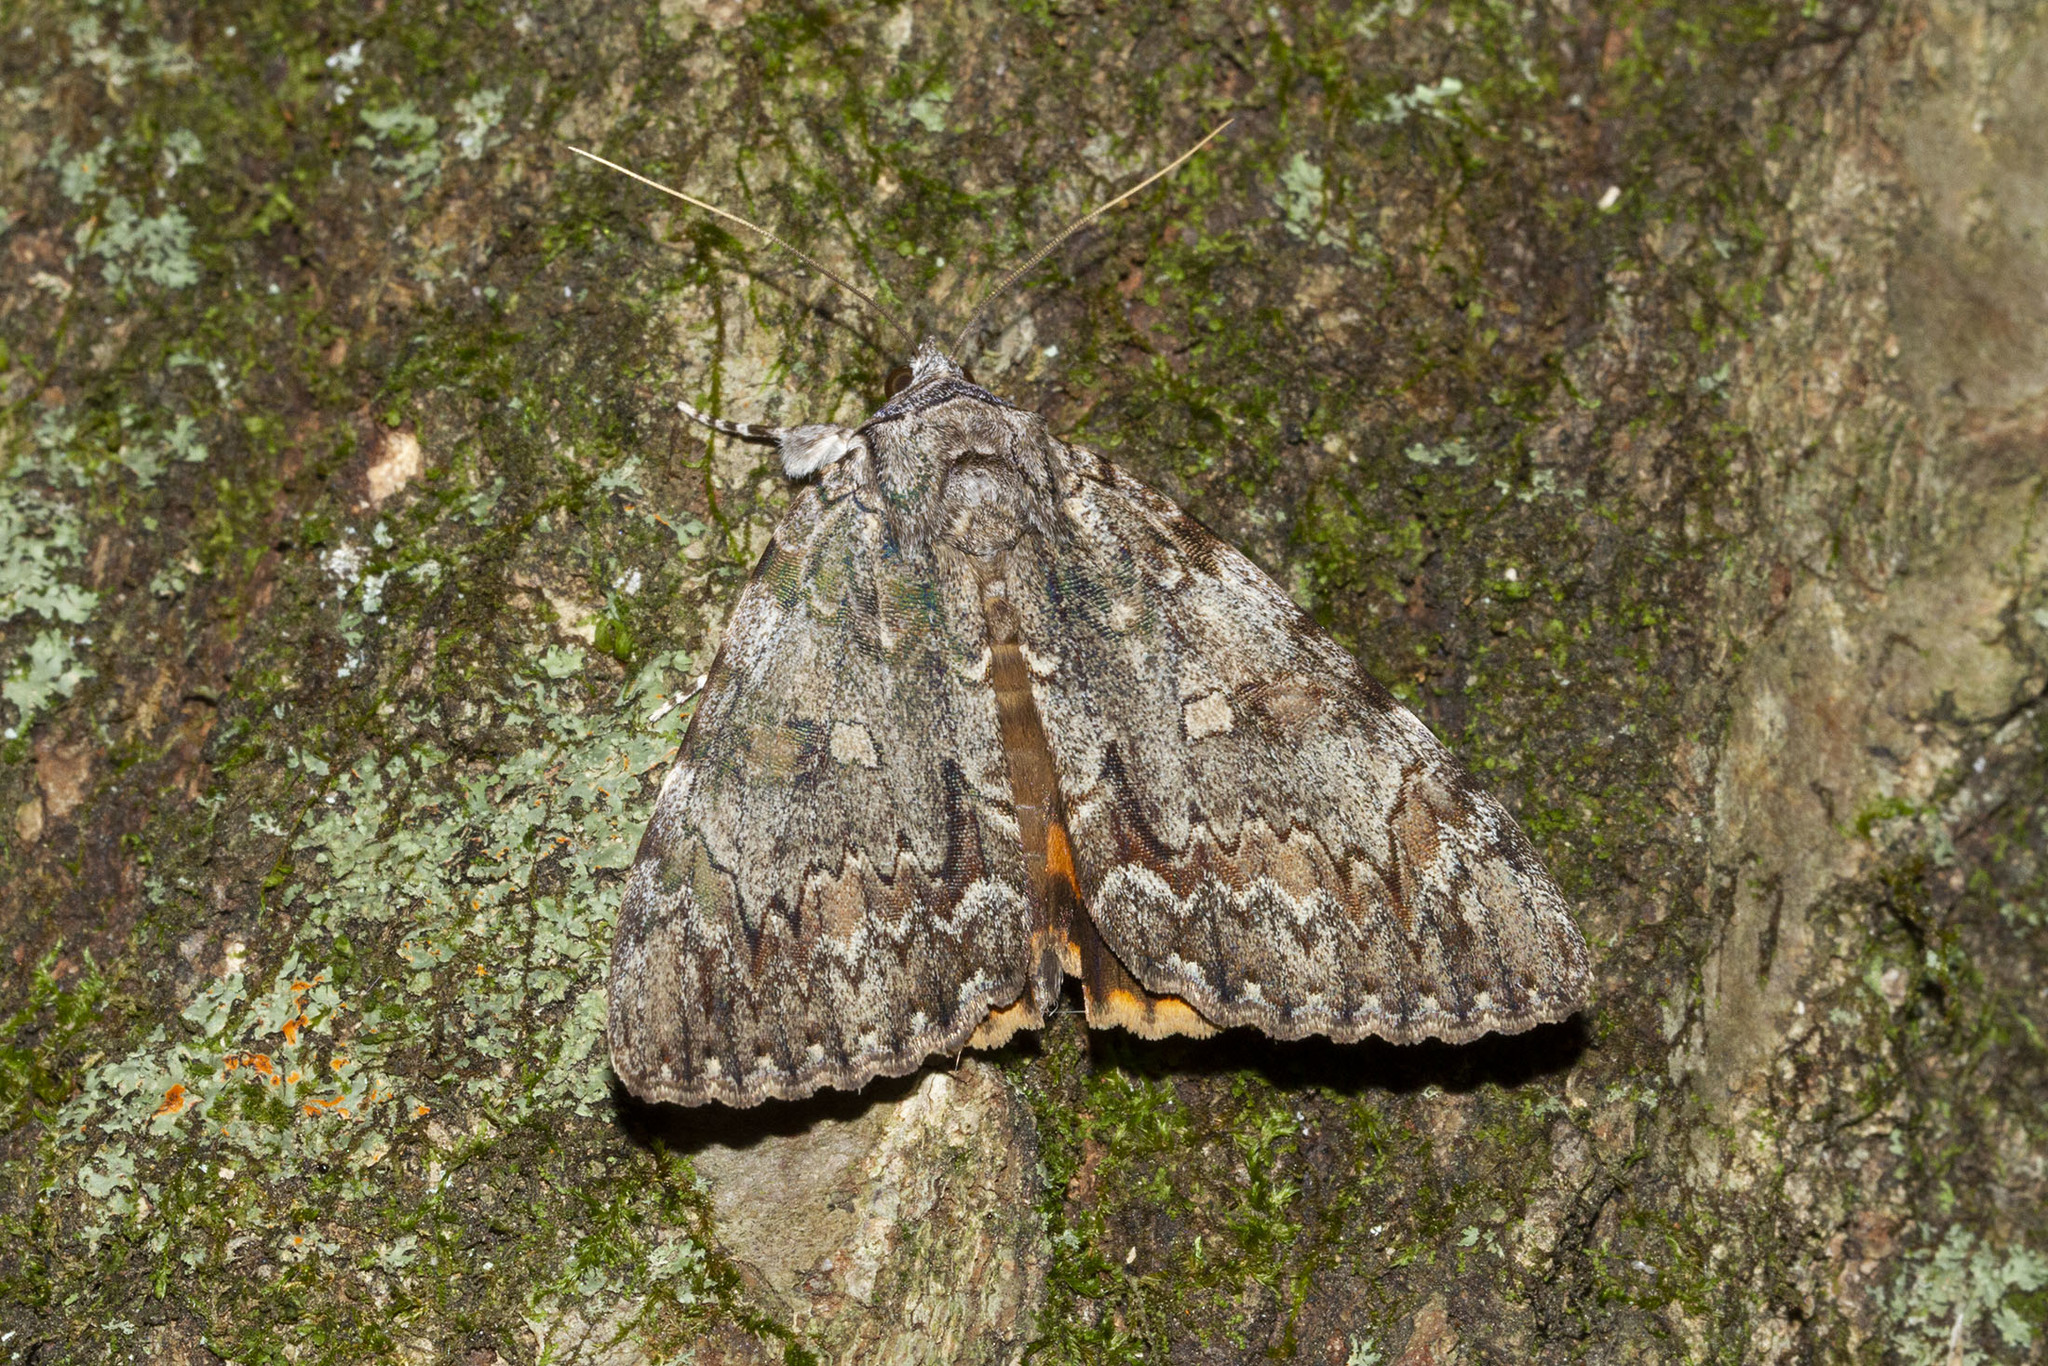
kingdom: Animalia
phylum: Arthropoda
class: Insecta
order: Lepidoptera
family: Erebidae
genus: Catocala
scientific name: Catocala palaeogama
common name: Oldwife underwing
